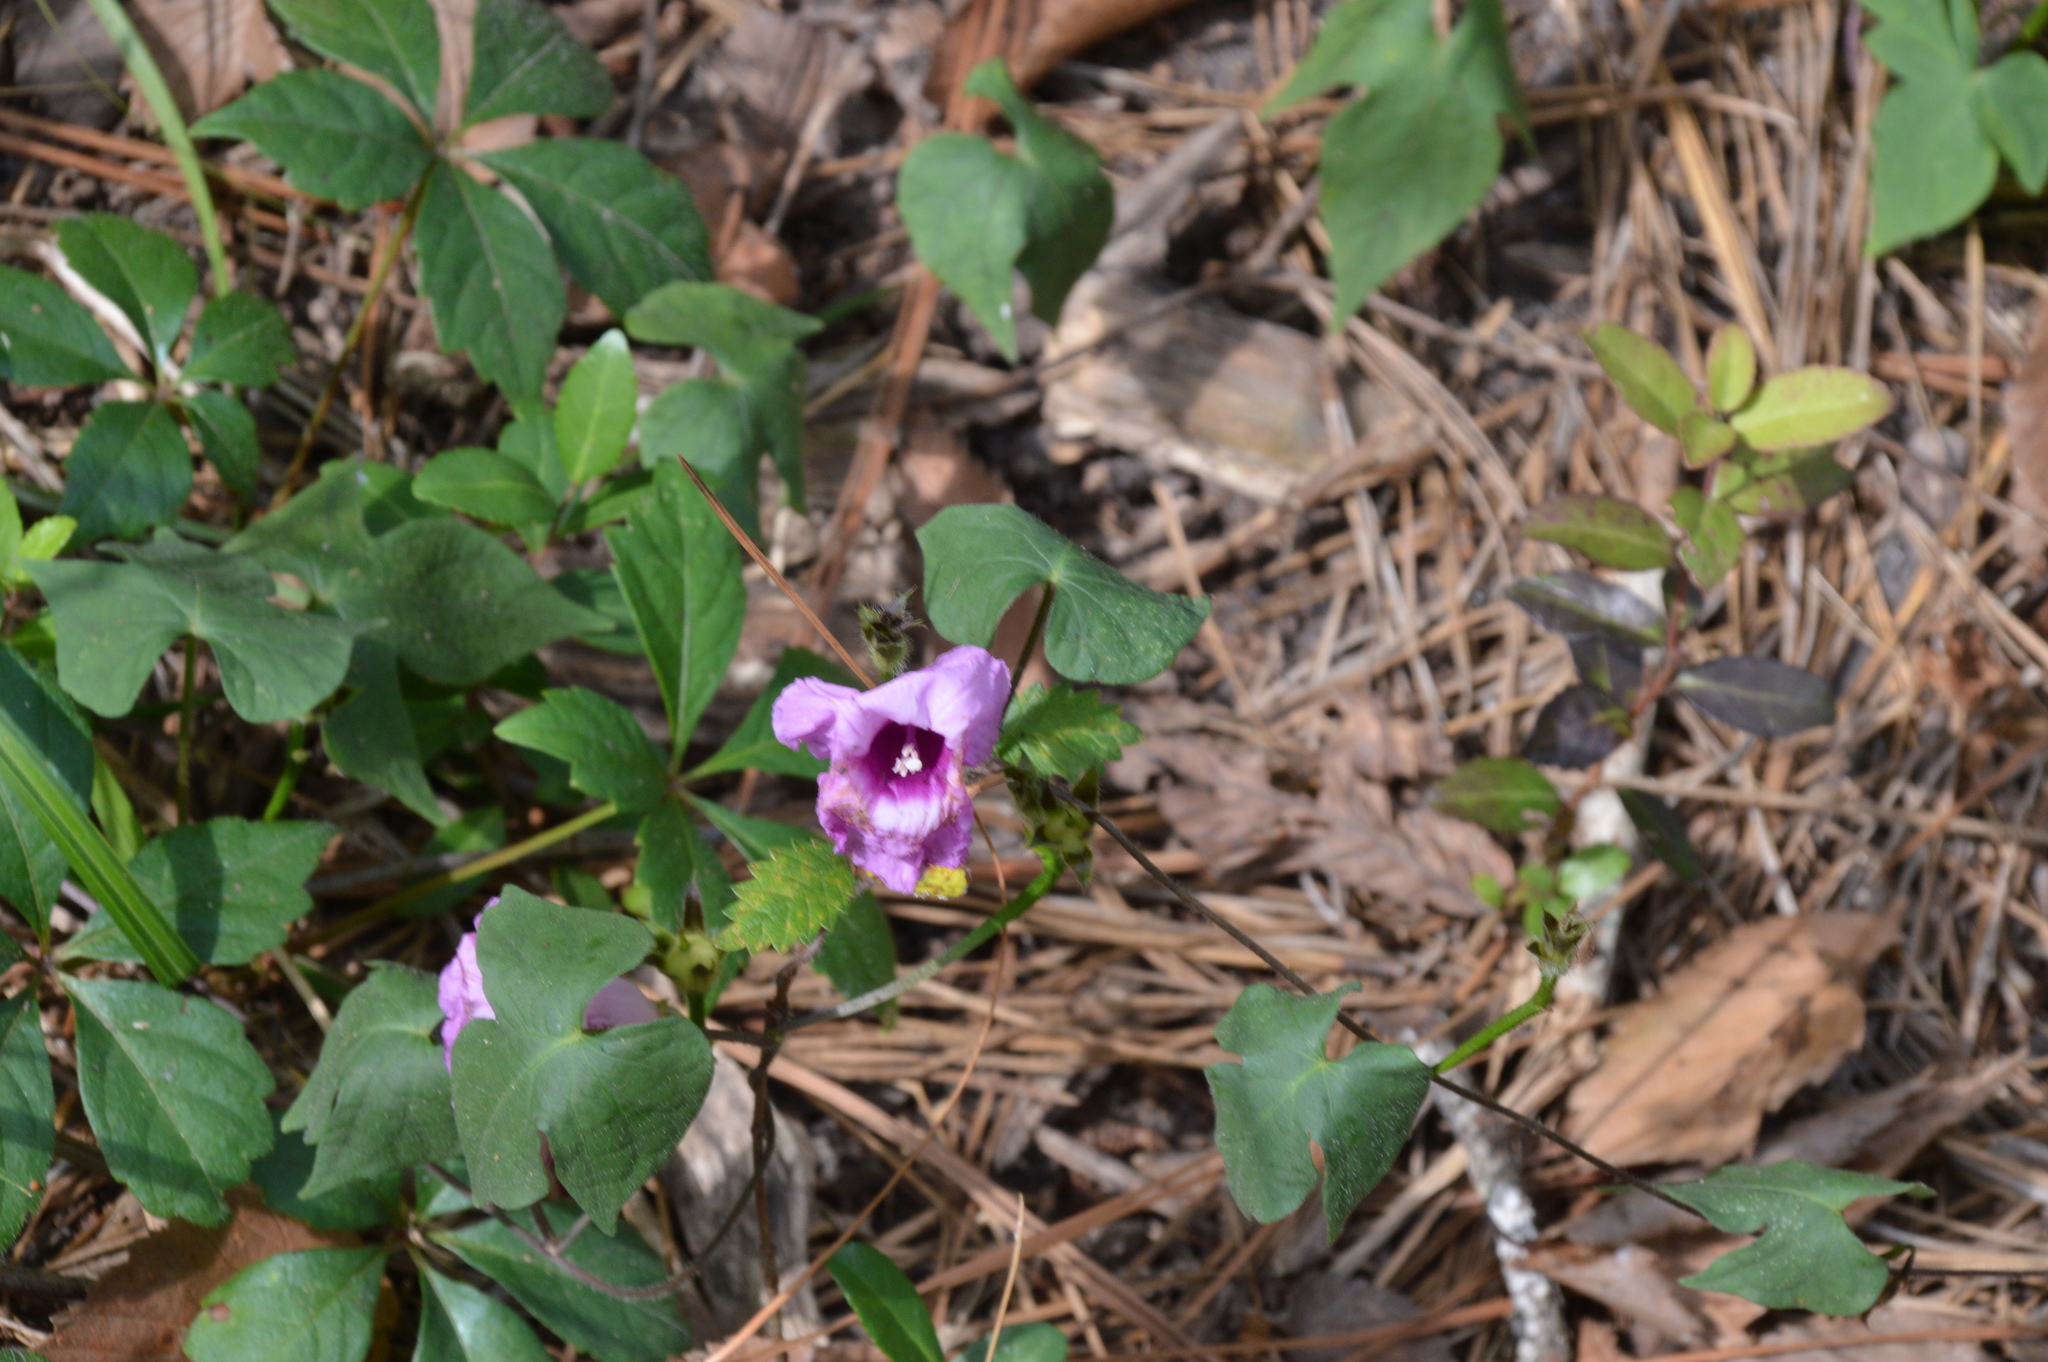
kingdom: Plantae
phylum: Tracheophyta
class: Magnoliopsida
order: Solanales
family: Convolvulaceae
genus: Ipomoea
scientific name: Ipomoea cordatotriloba
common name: Cotton morning glory
